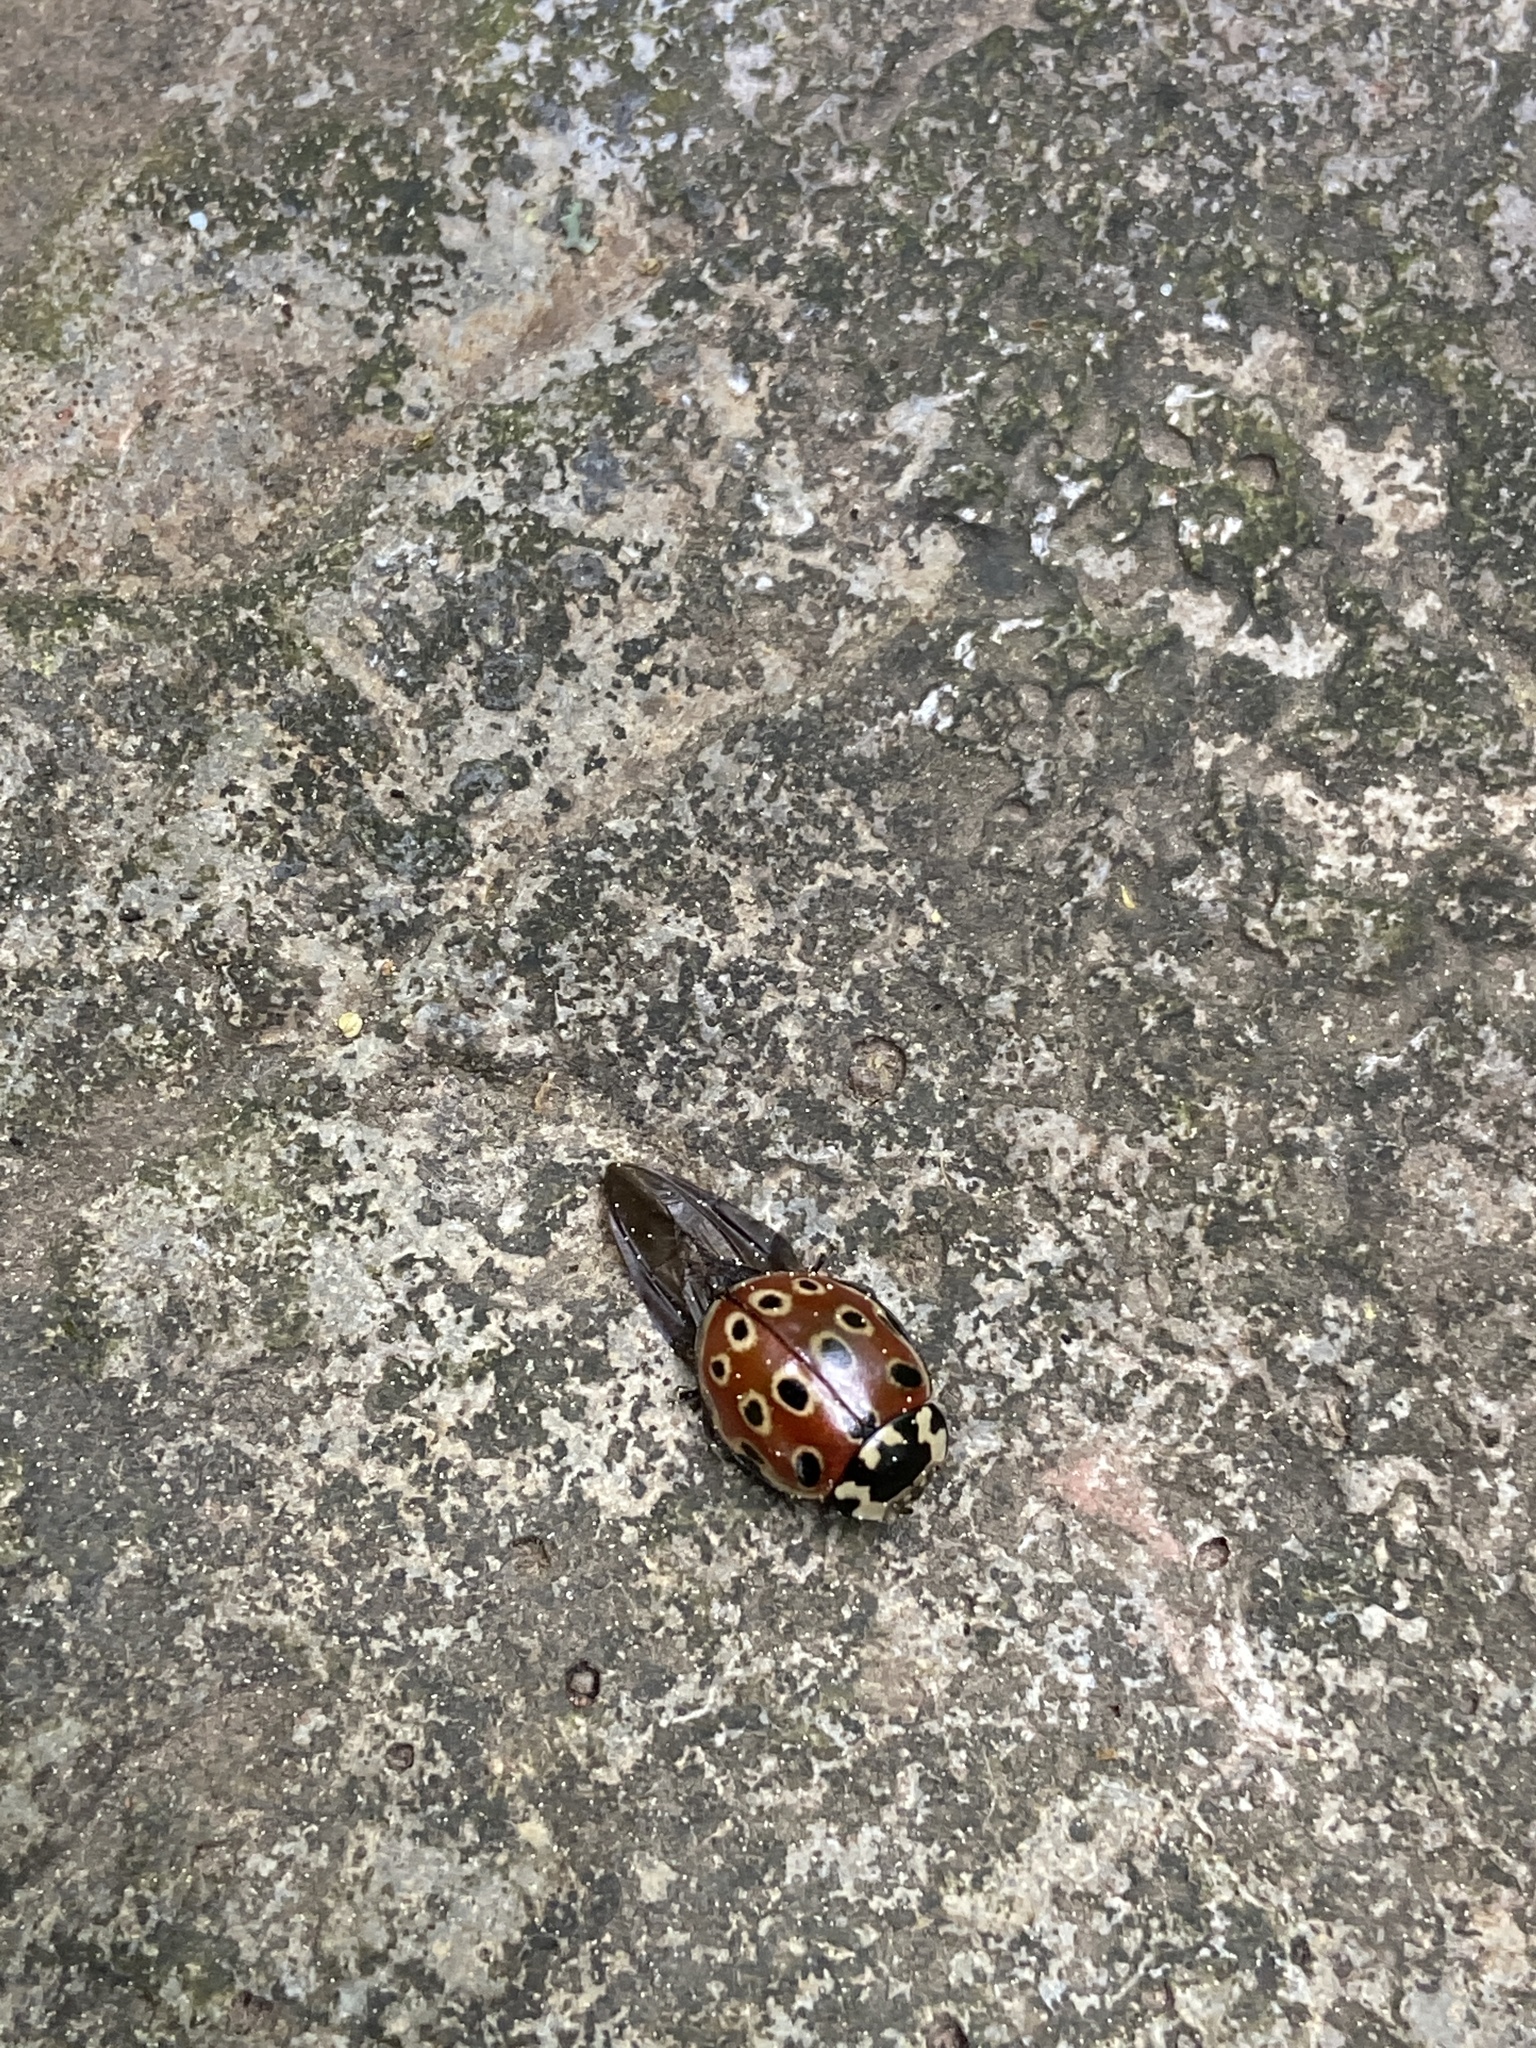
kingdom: Animalia
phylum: Arthropoda
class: Insecta
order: Coleoptera
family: Coccinellidae
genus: Anatis
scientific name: Anatis ocellata
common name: Eyed ladybird
